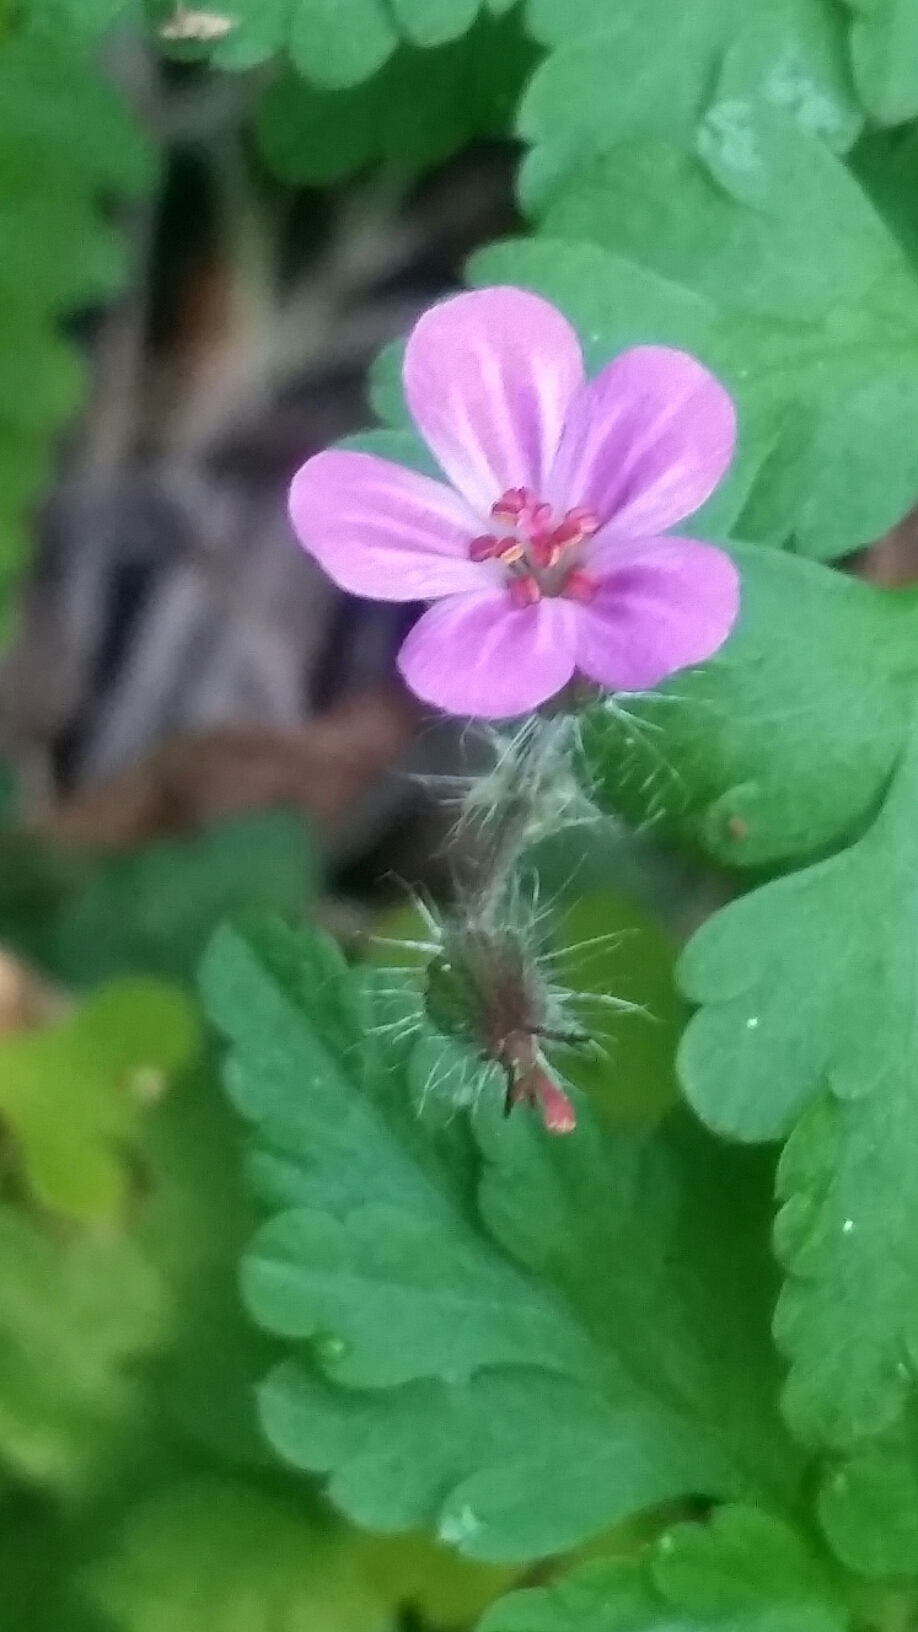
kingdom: Plantae
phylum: Tracheophyta
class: Magnoliopsida
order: Geraniales
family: Geraniaceae
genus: Geranium
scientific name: Geranium robertianum
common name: Herb-robert
